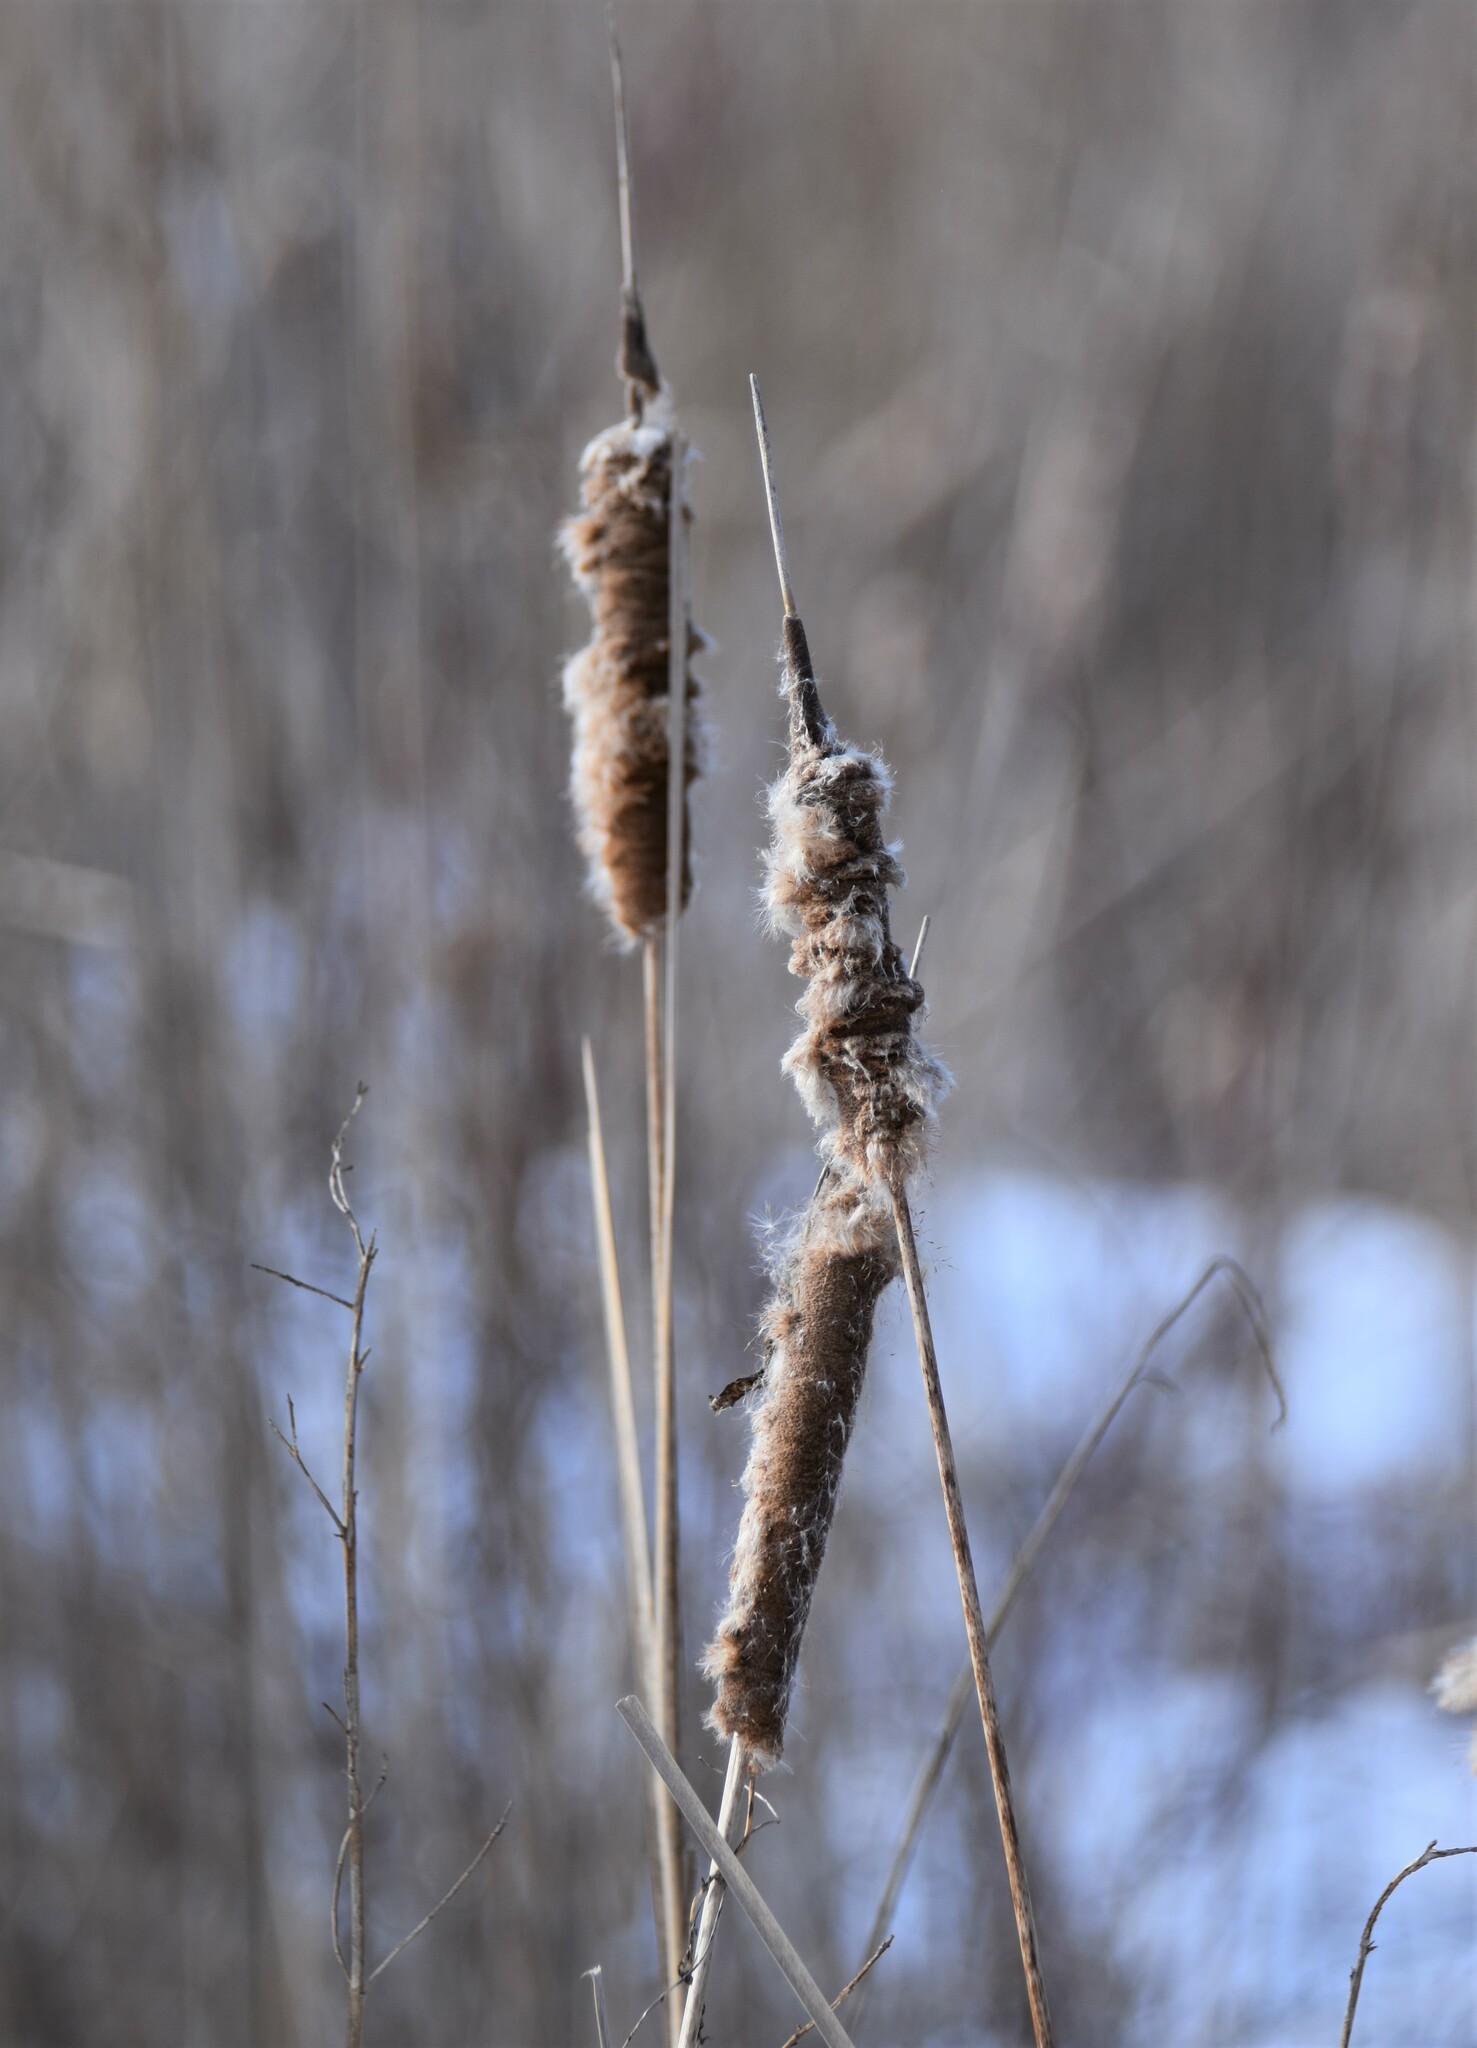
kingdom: Plantae
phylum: Tracheophyta
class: Liliopsida
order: Poales
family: Typhaceae
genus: Typha
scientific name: Typha angustifolia
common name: Lesser bulrush
